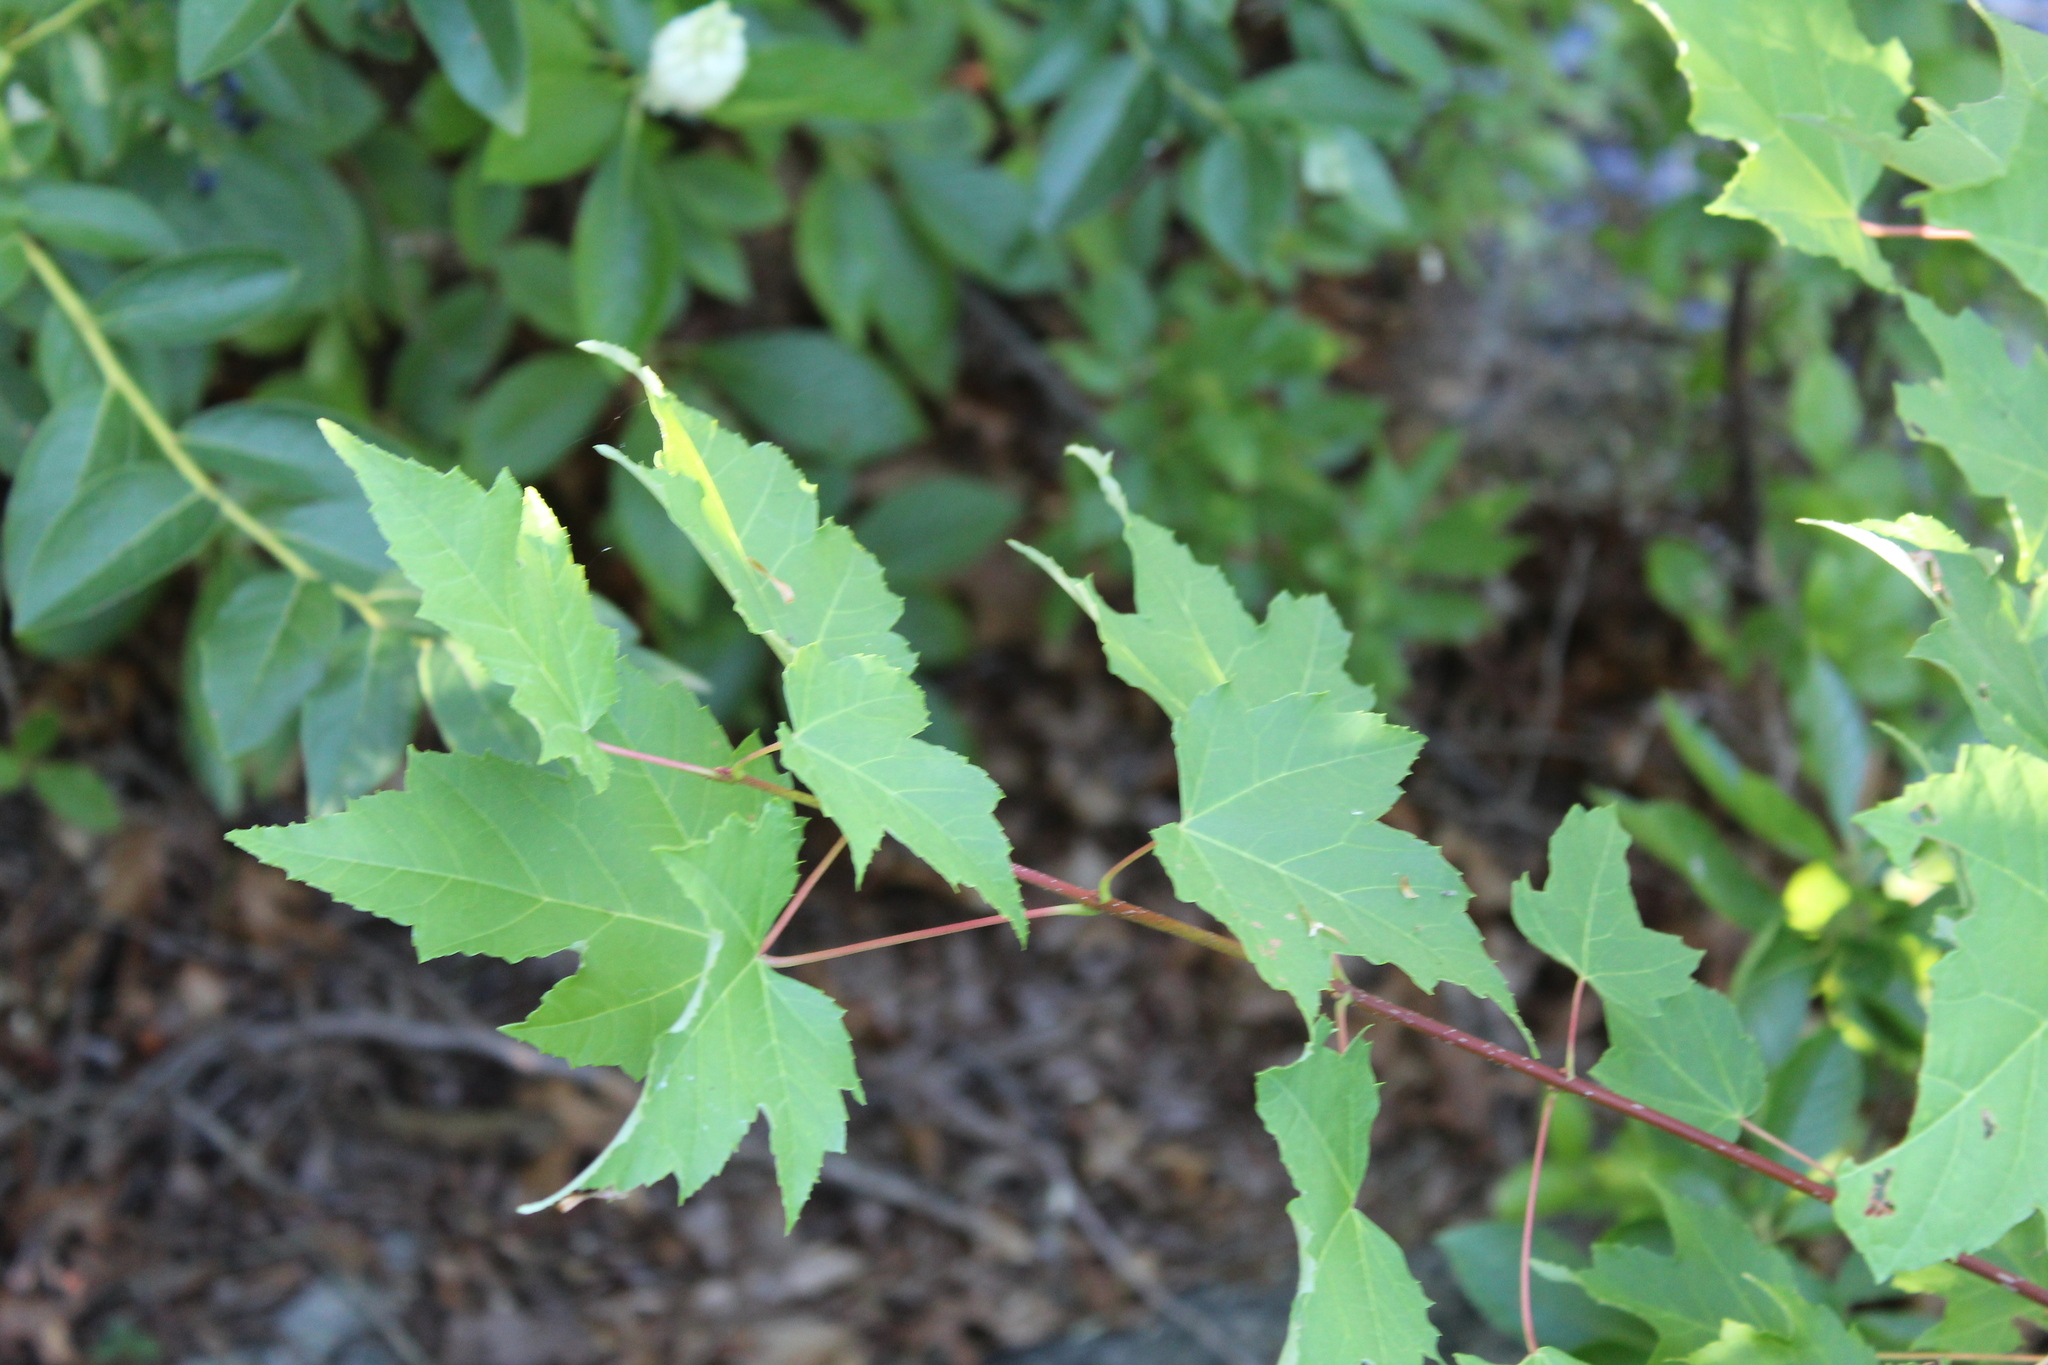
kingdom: Plantae
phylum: Tracheophyta
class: Magnoliopsida
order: Sapindales
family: Sapindaceae
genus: Acer
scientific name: Acer rubrum
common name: Red maple
